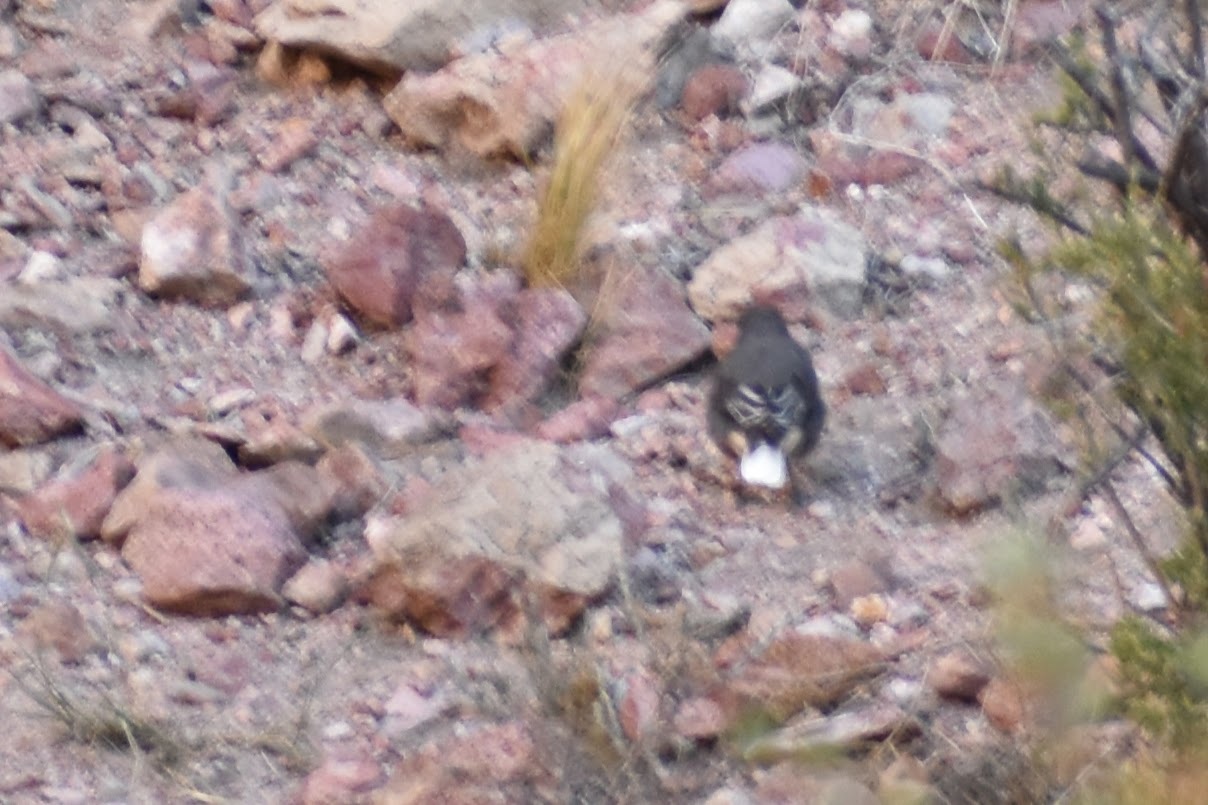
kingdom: Animalia
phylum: Chordata
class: Aves
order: Passeriformes
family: Tyrannidae
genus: Agriornis
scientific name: Agriornis montanus
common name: Black-billed shrike-tyrant
